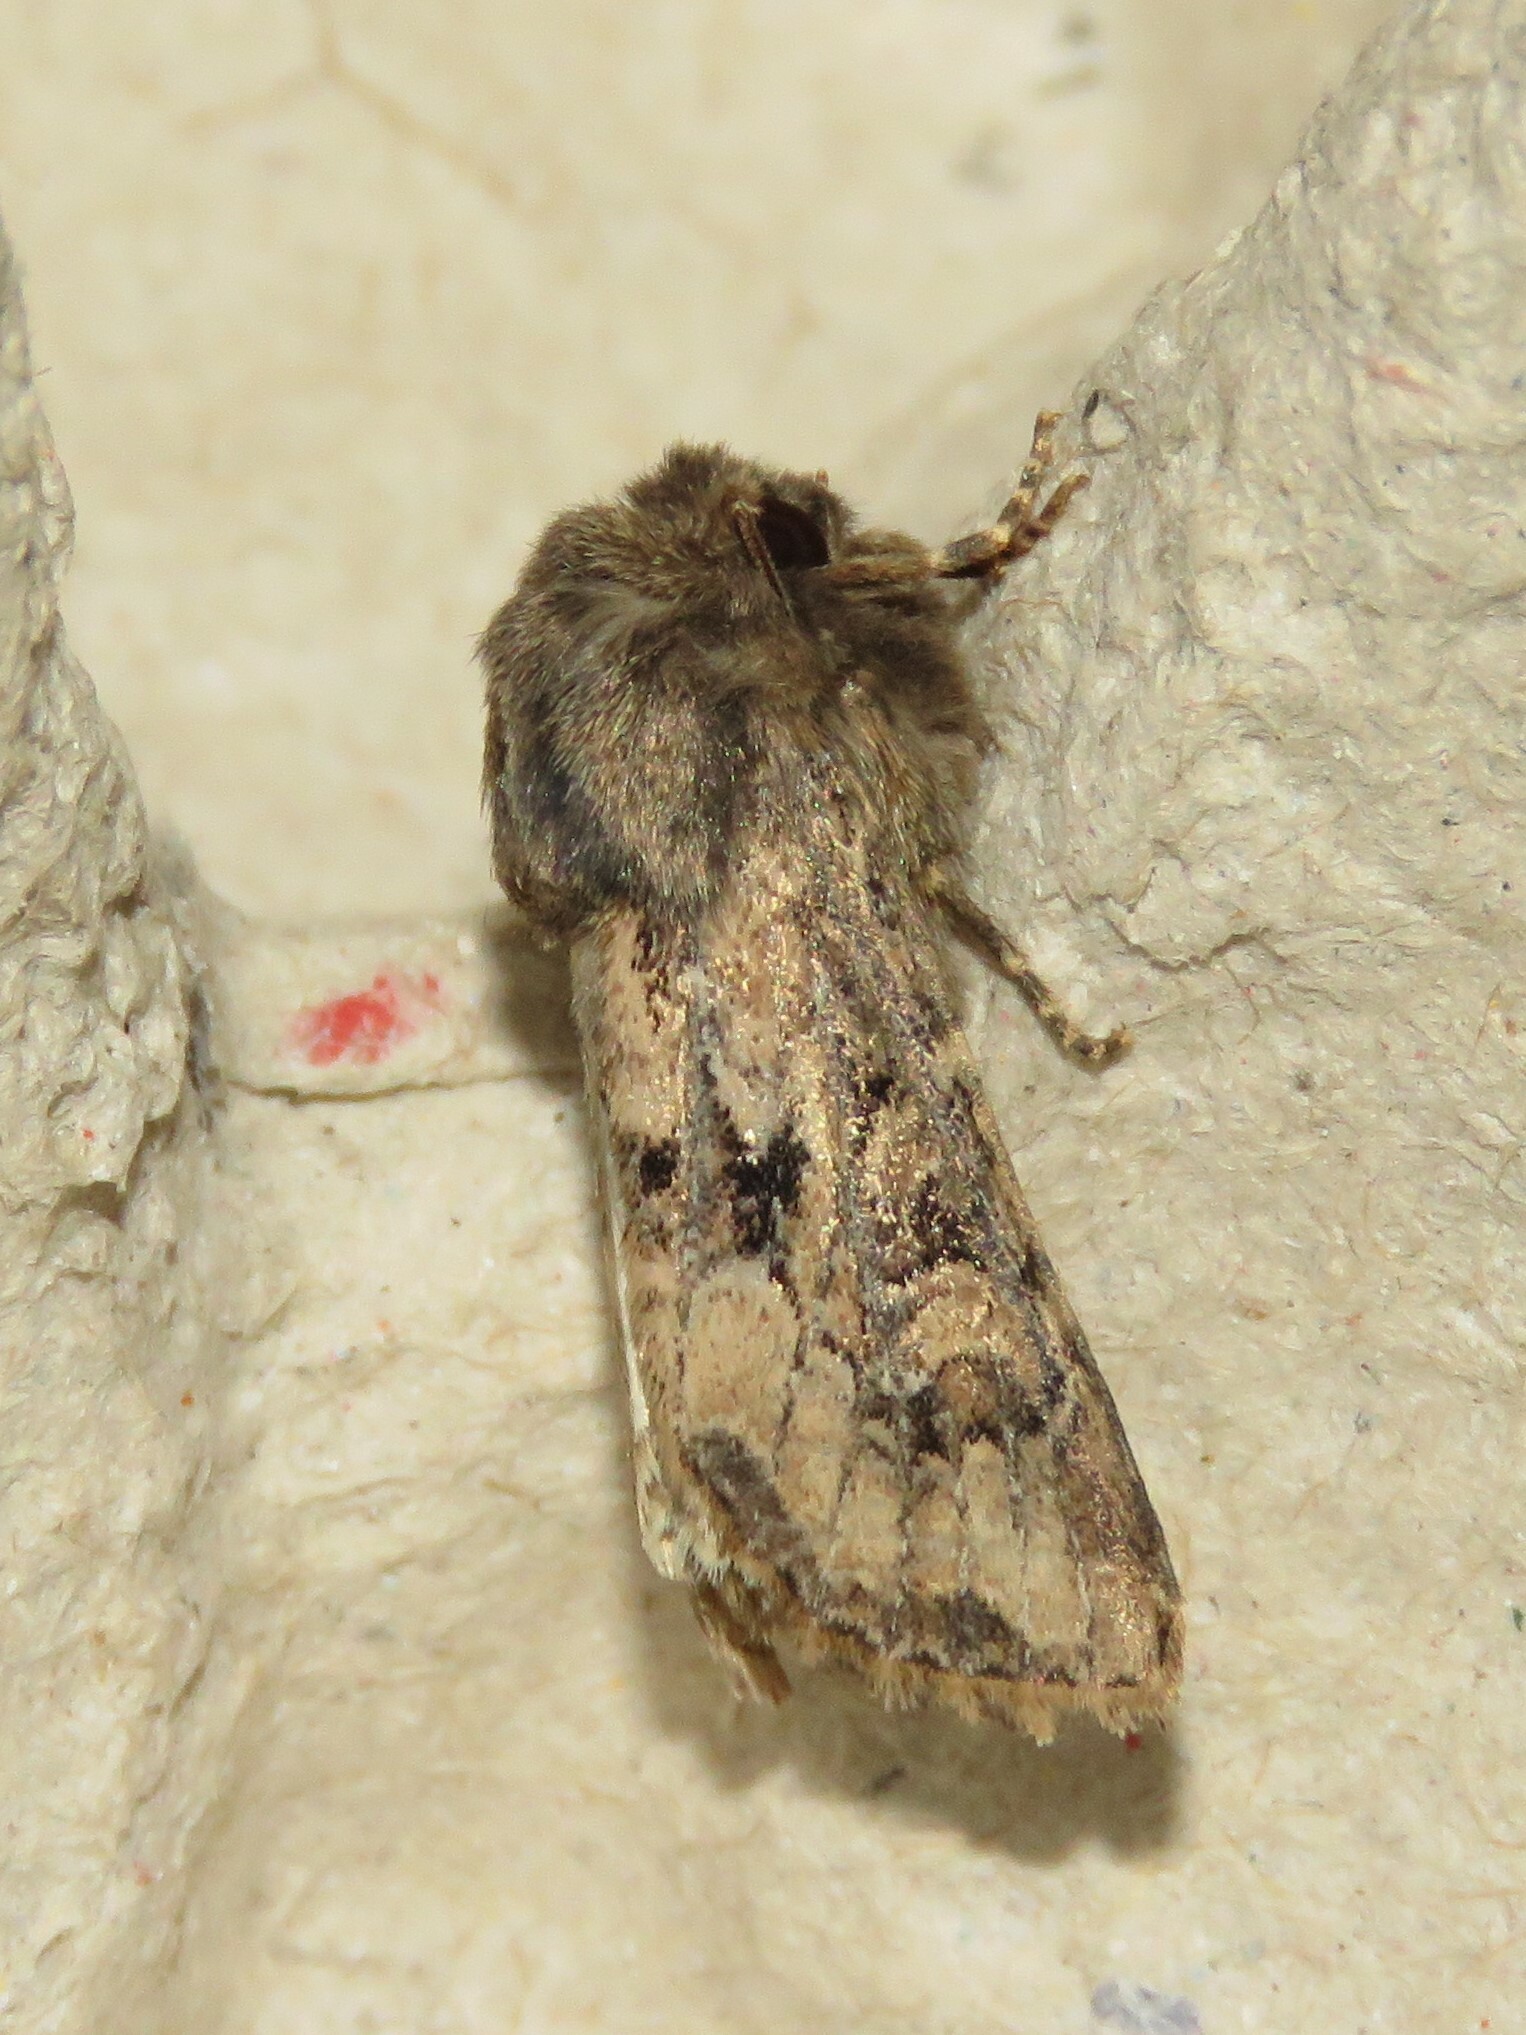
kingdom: Animalia
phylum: Arthropoda
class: Insecta
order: Lepidoptera
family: Noctuidae
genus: Luperina
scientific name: Luperina testacea
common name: Flounced rustic
